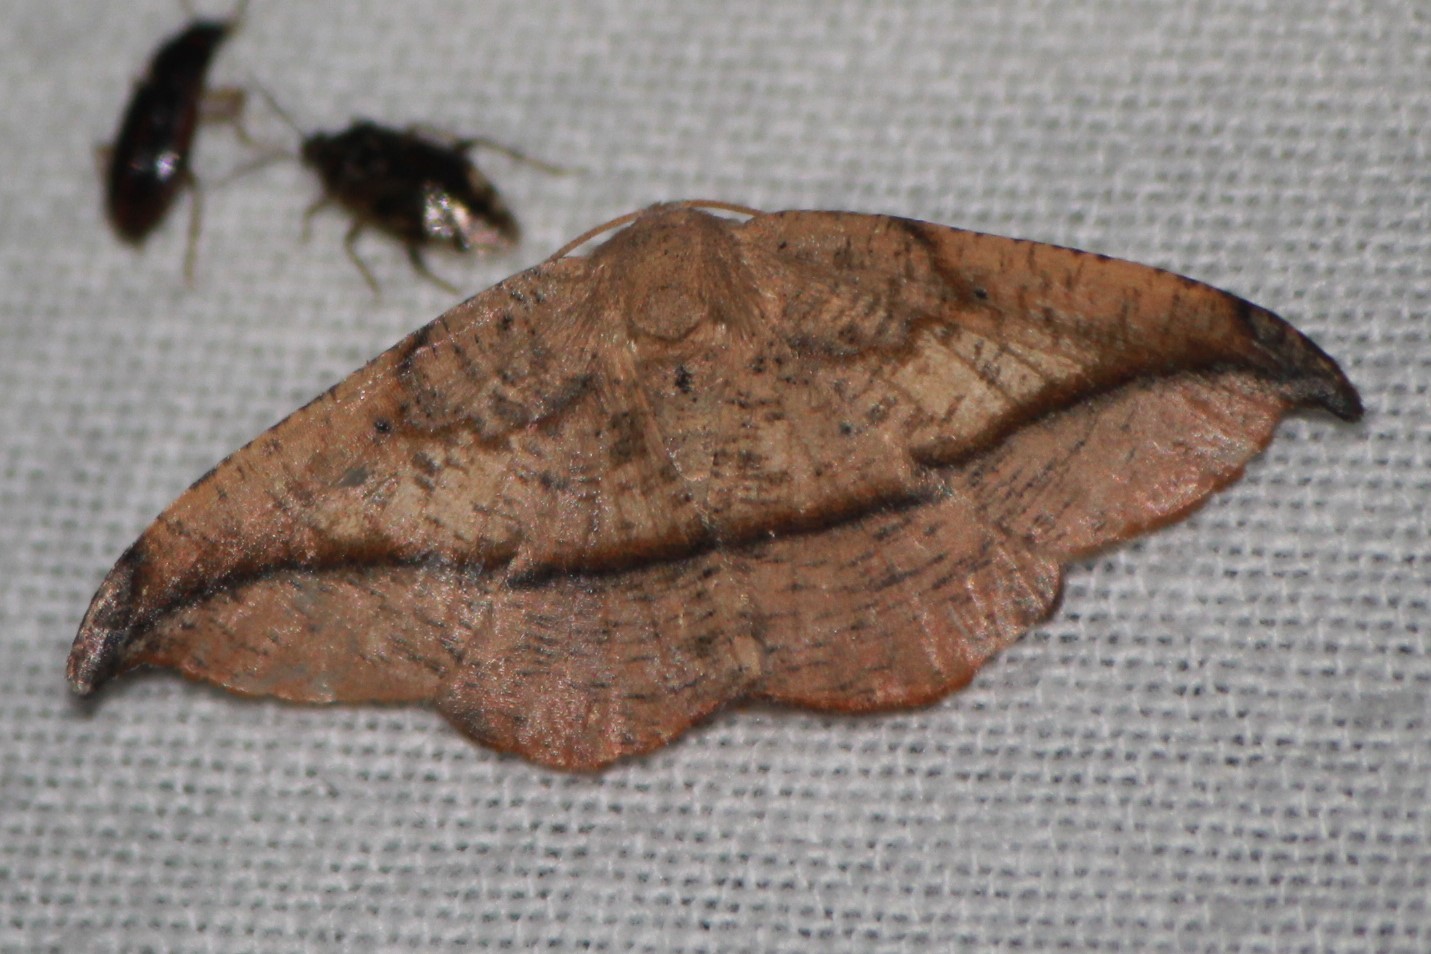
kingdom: Animalia
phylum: Arthropoda
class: Insecta
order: Lepidoptera
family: Geometridae
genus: Patalene
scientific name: Patalene olyzonaria
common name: Juniper geometer moth
